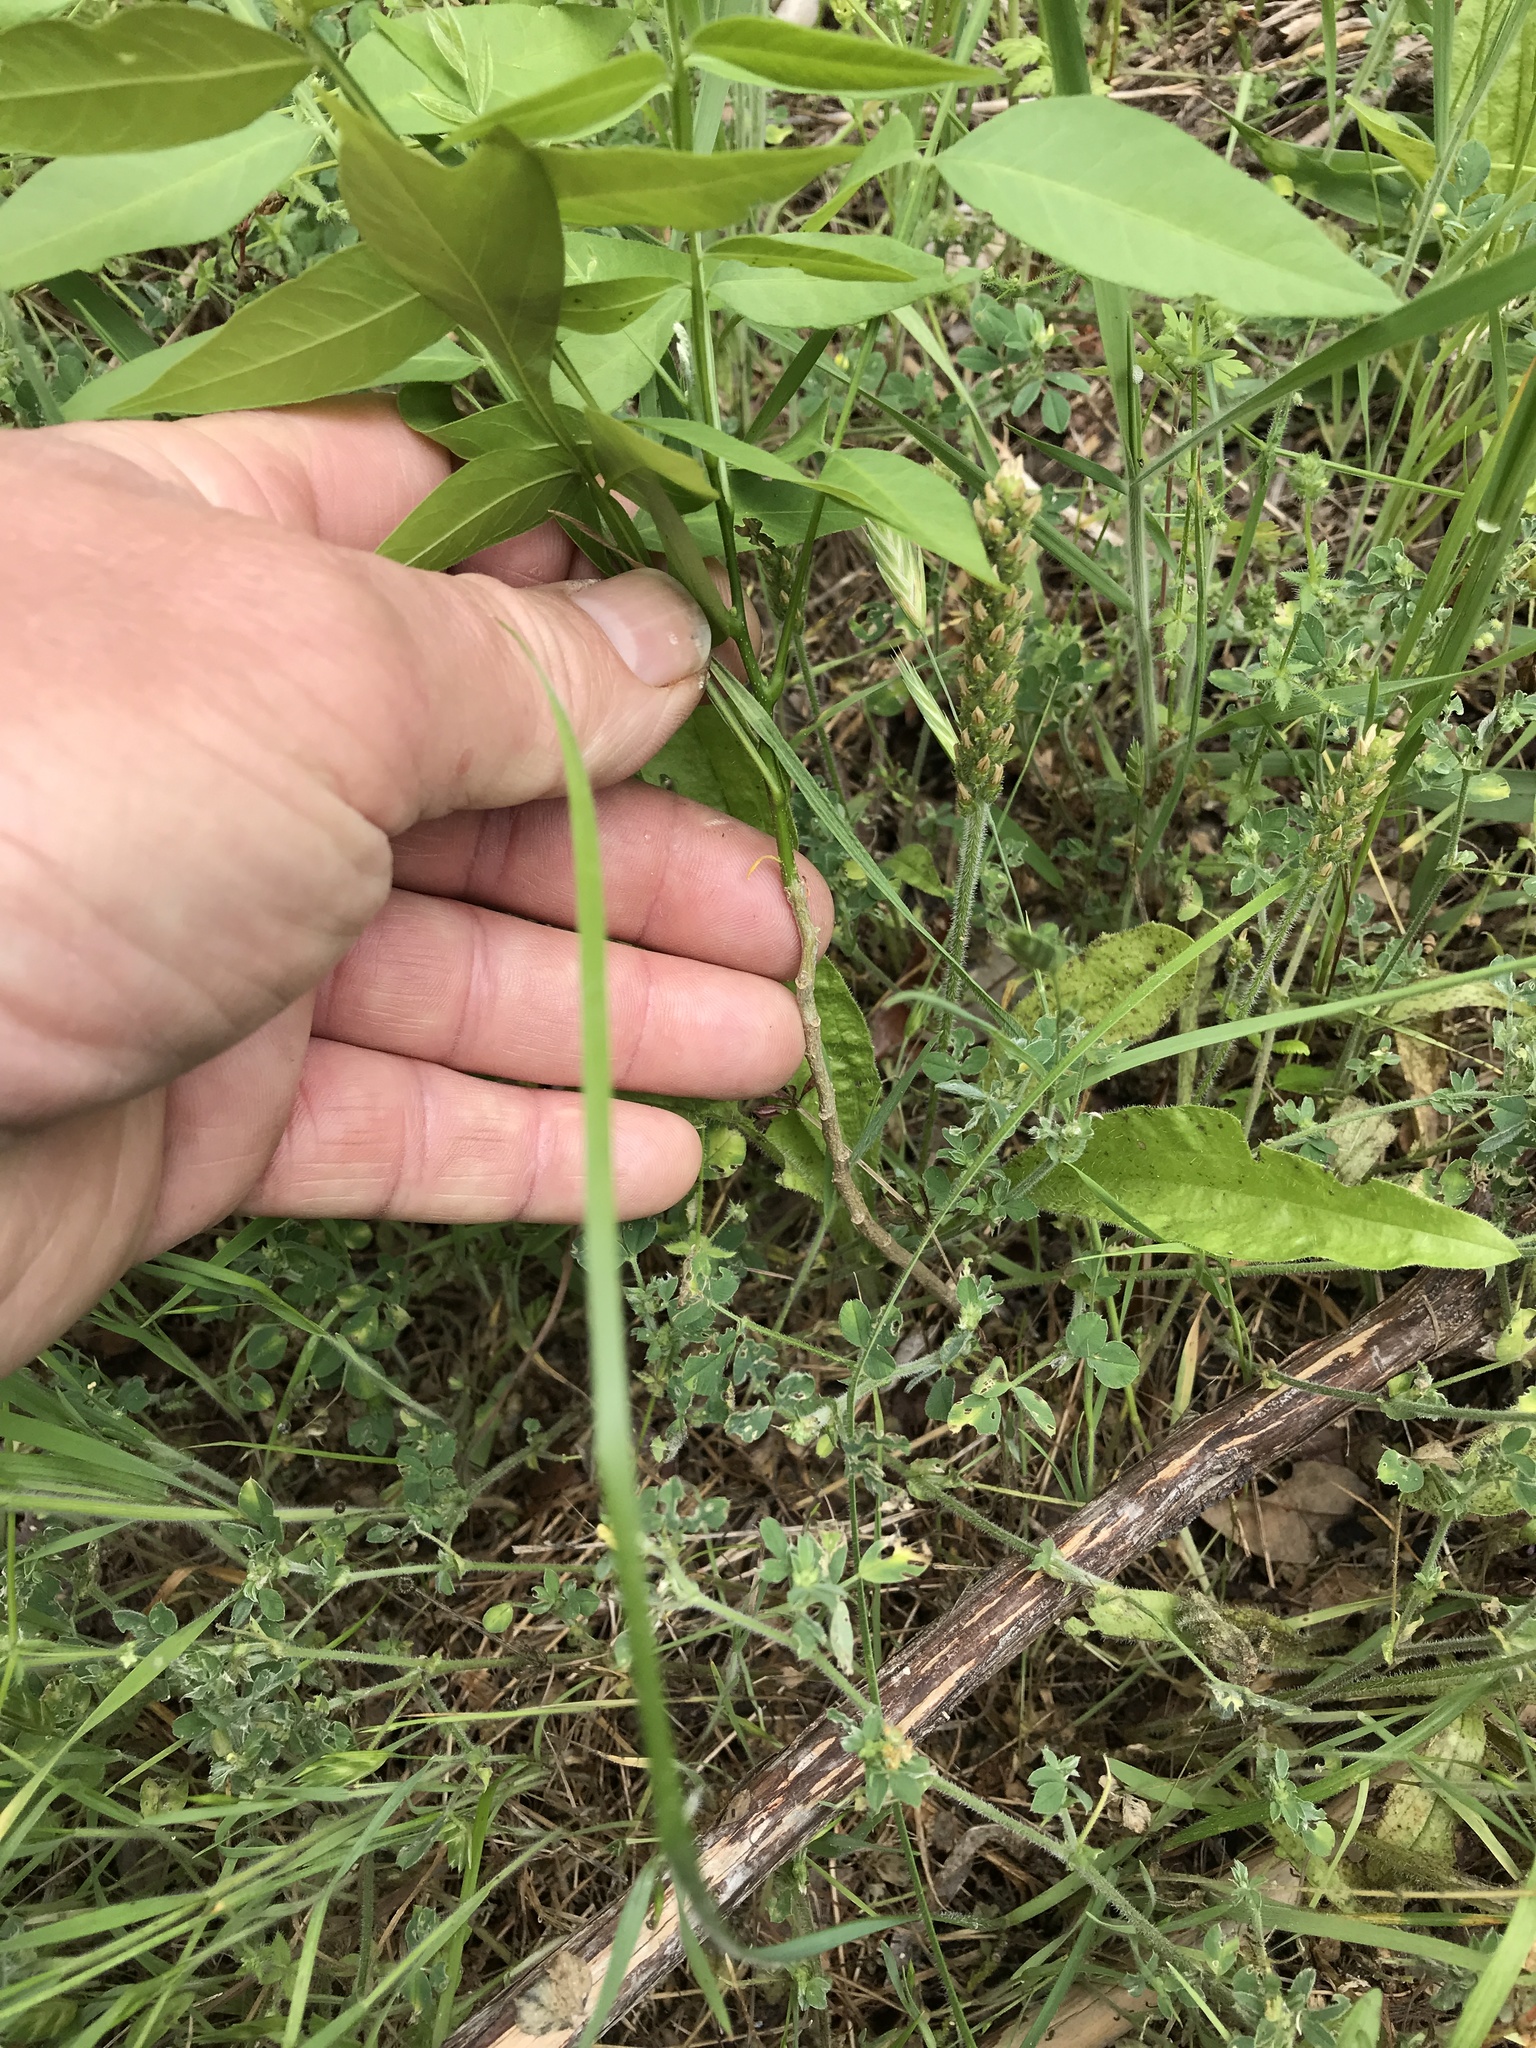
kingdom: Plantae
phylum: Tracheophyta
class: Magnoliopsida
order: Sapindales
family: Sapindaceae
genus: Sapindus
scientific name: Sapindus drummondii
